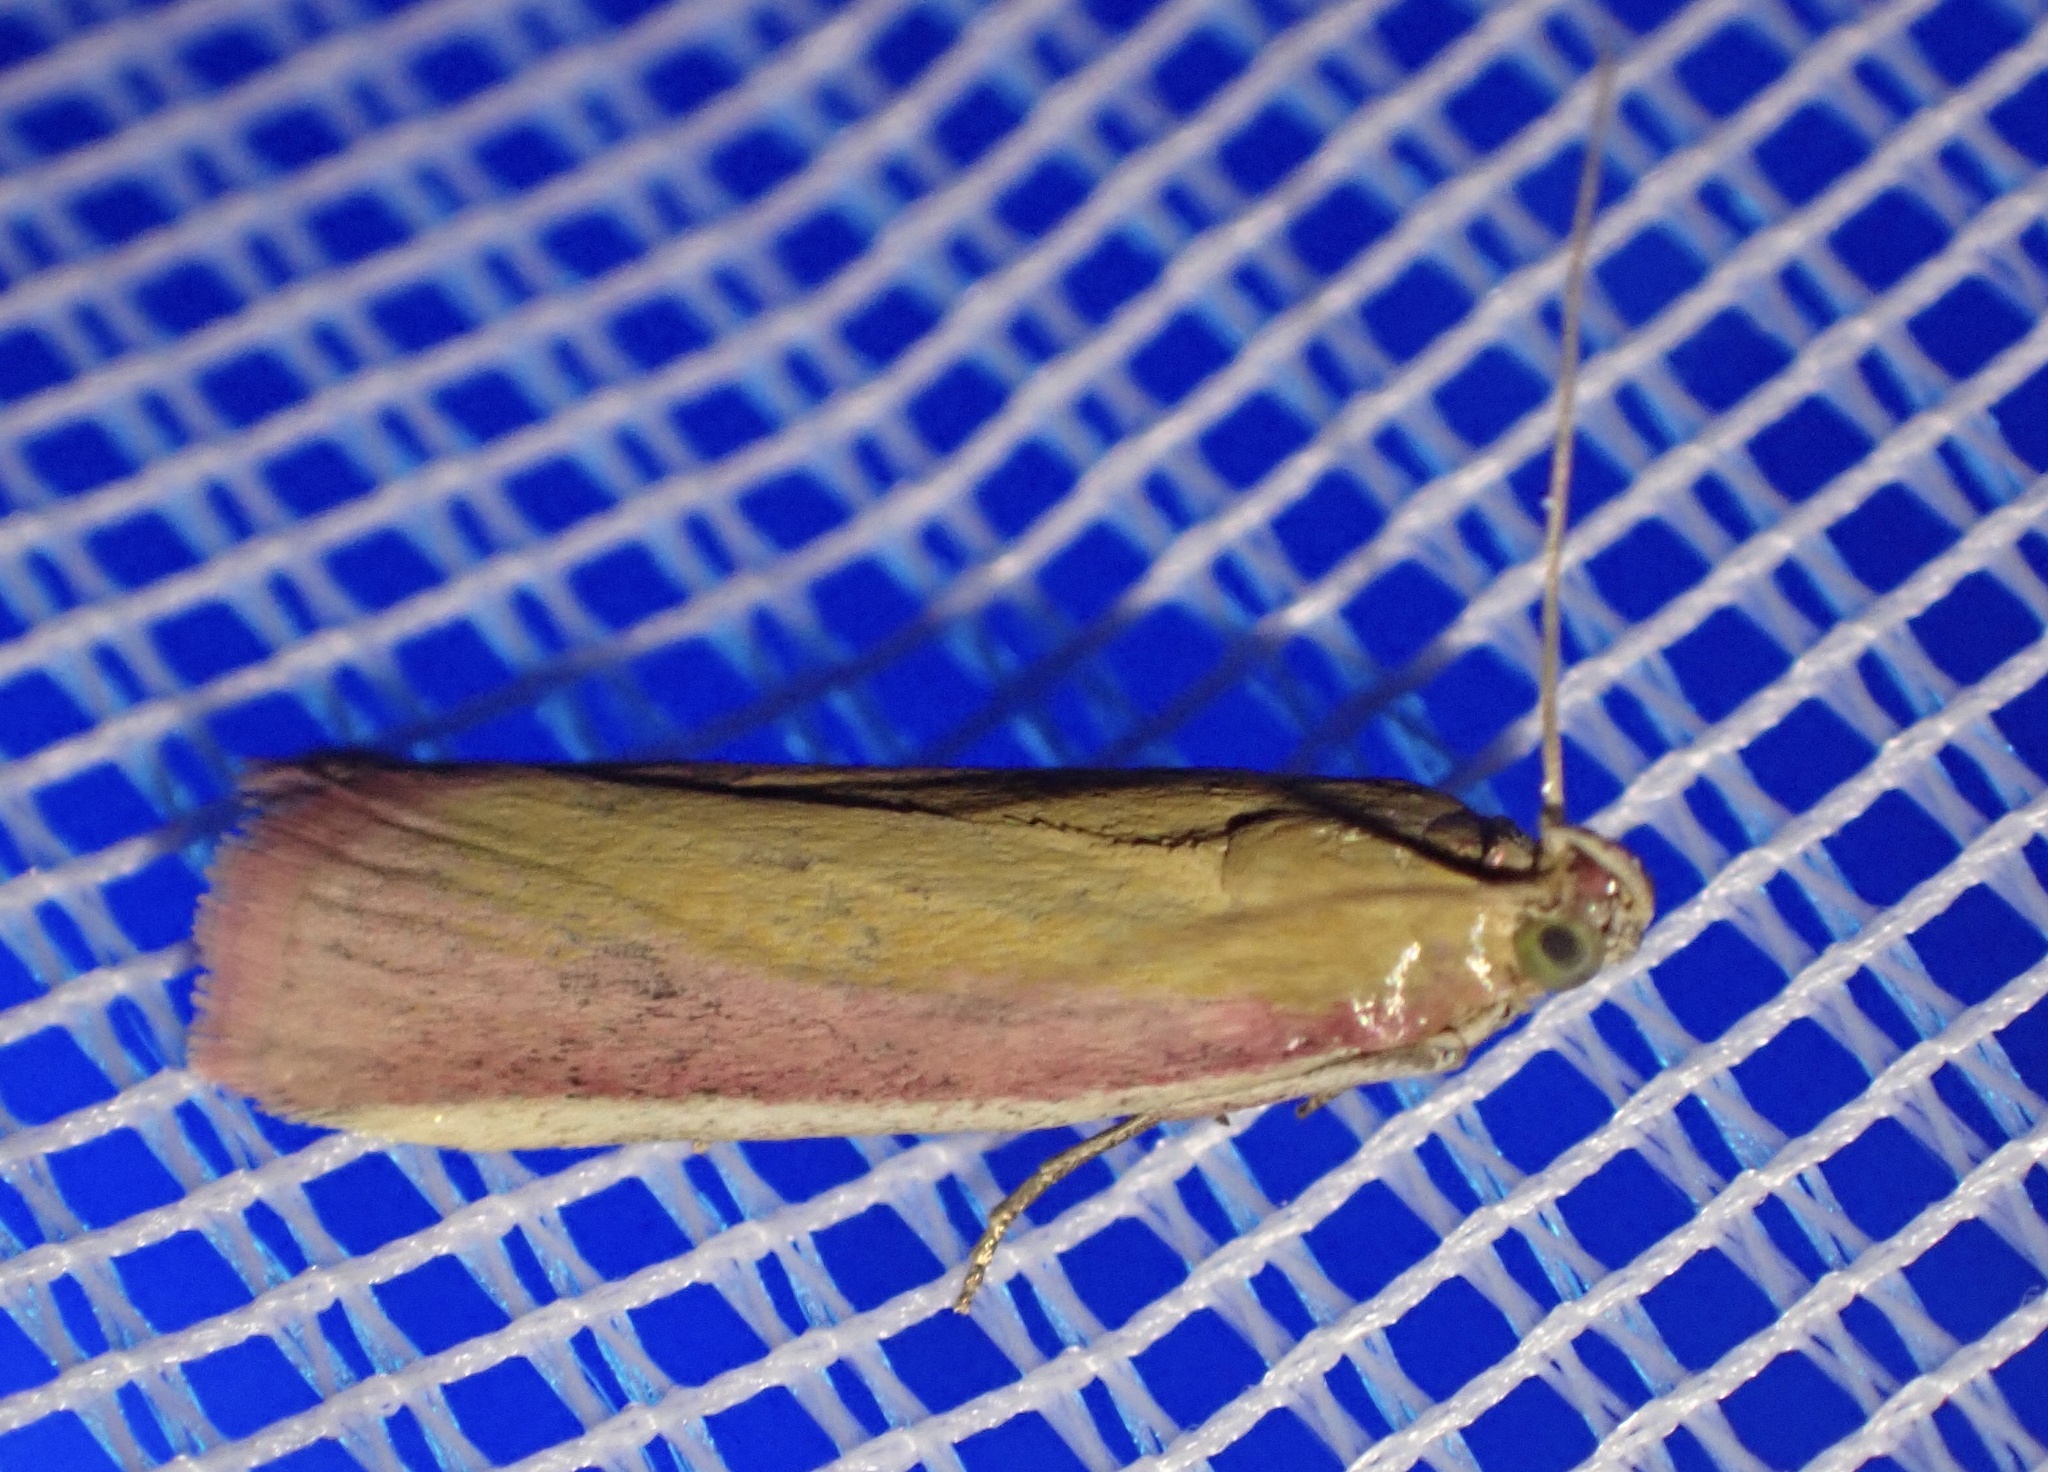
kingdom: Animalia
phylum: Arthropoda
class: Insecta
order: Lepidoptera
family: Pyralidae
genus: Oncocera
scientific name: Oncocera semirubella
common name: Rosy-striped knot-horn
